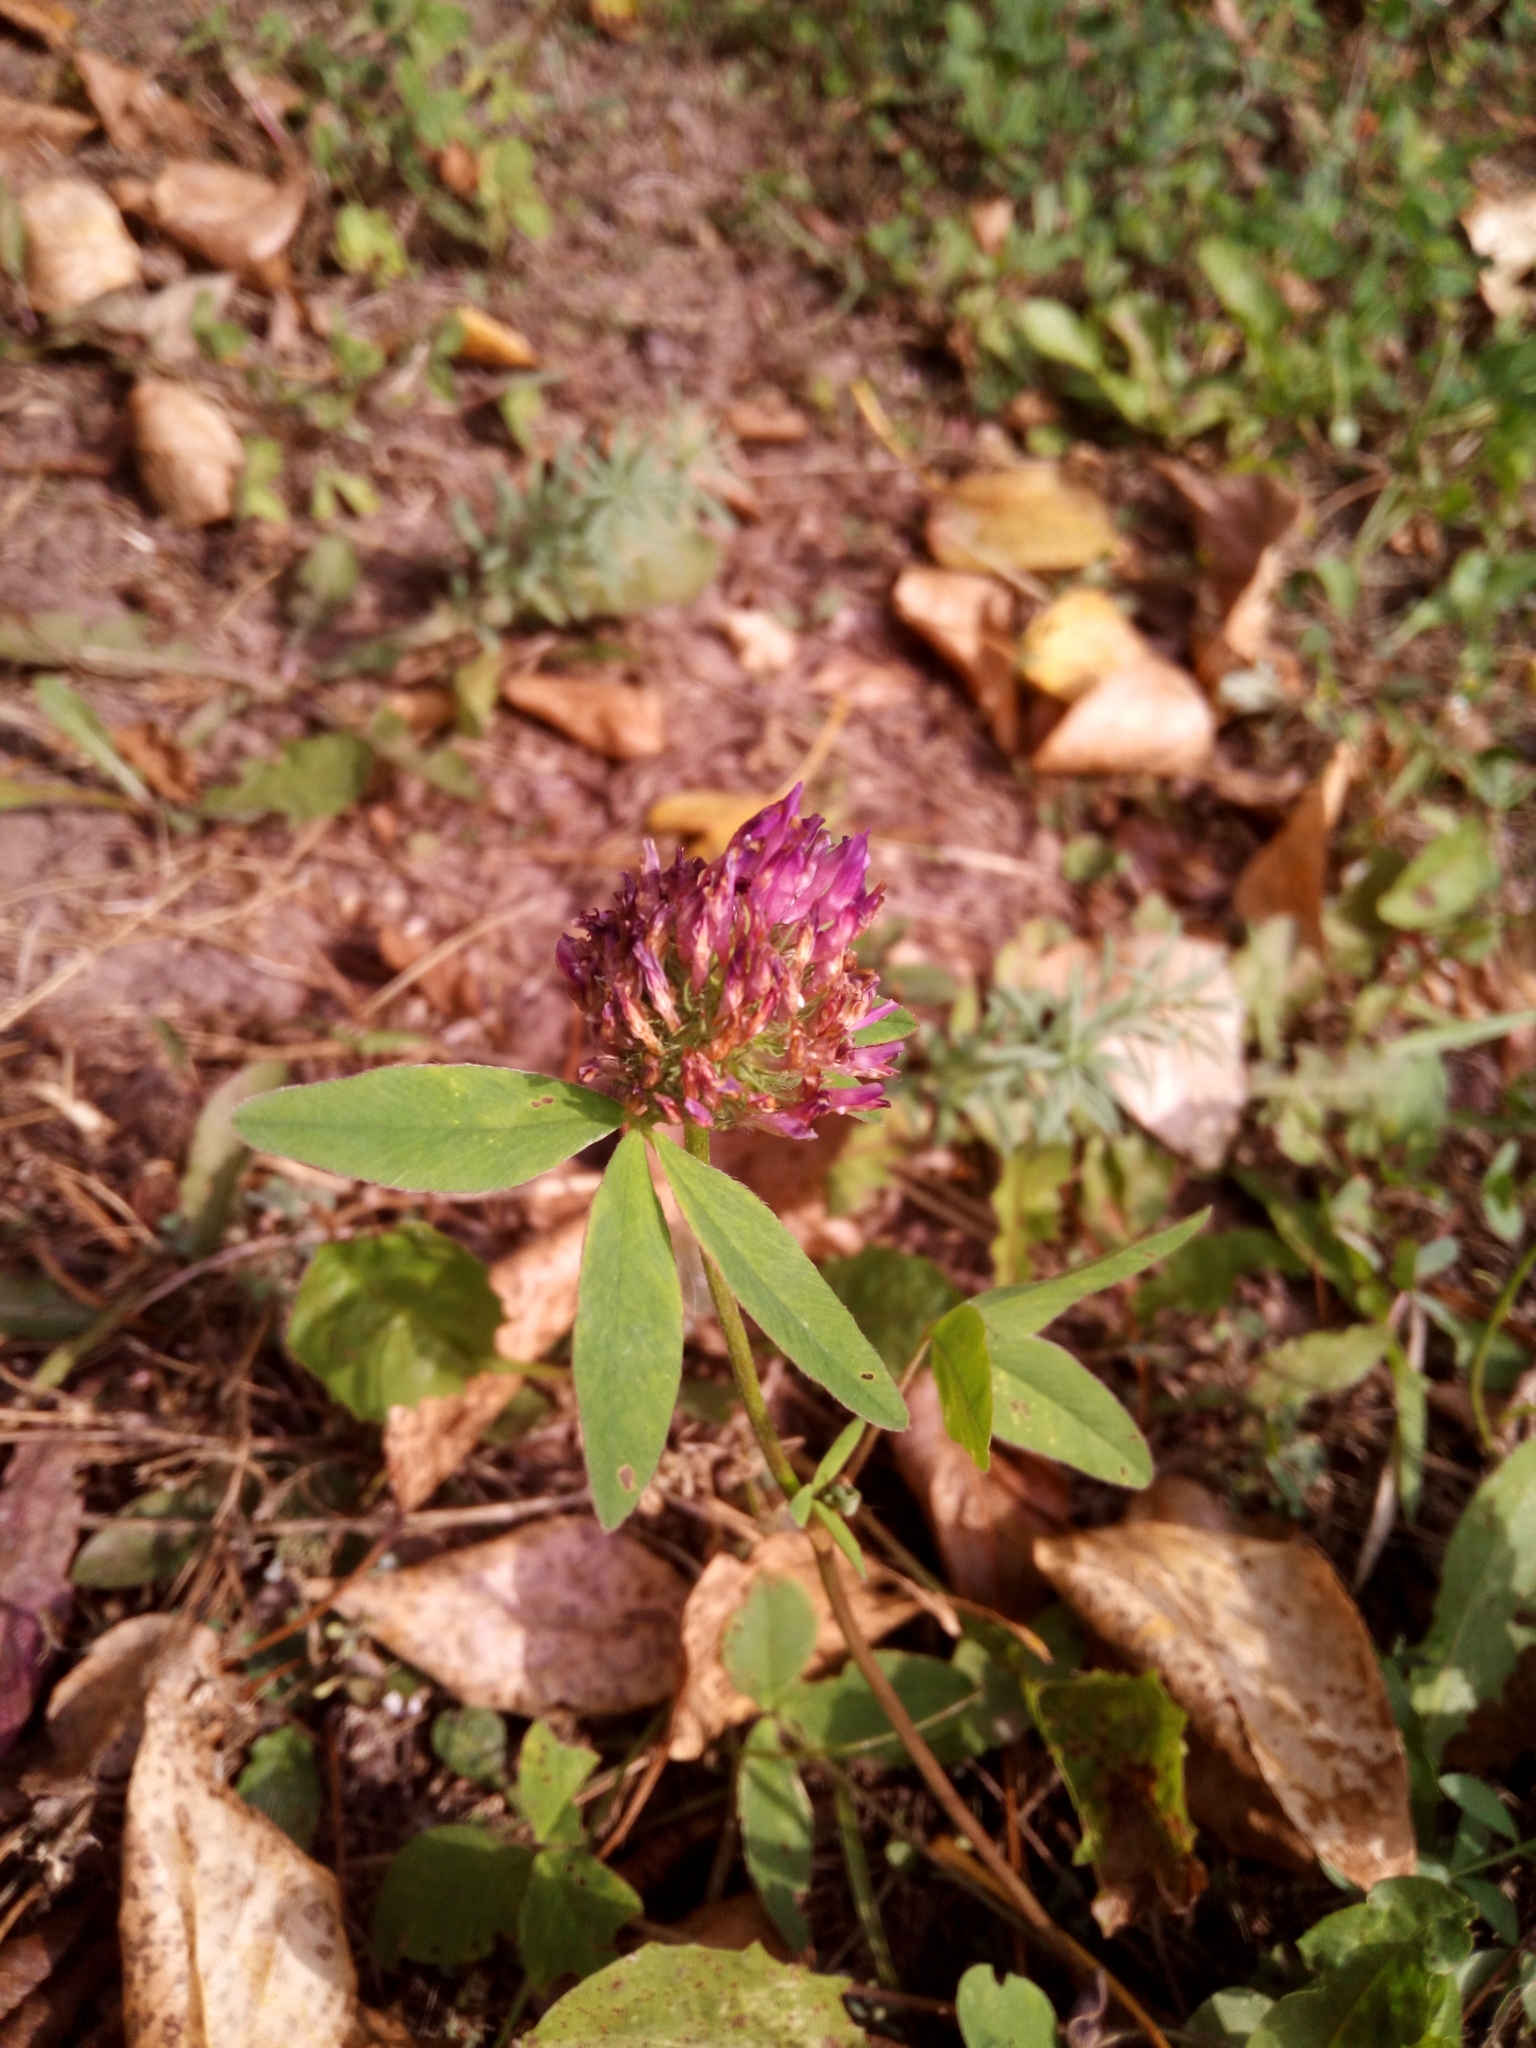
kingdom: Plantae
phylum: Tracheophyta
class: Magnoliopsida
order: Fabales
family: Fabaceae
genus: Trifolium
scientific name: Trifolium medium
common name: Zigzag clover
